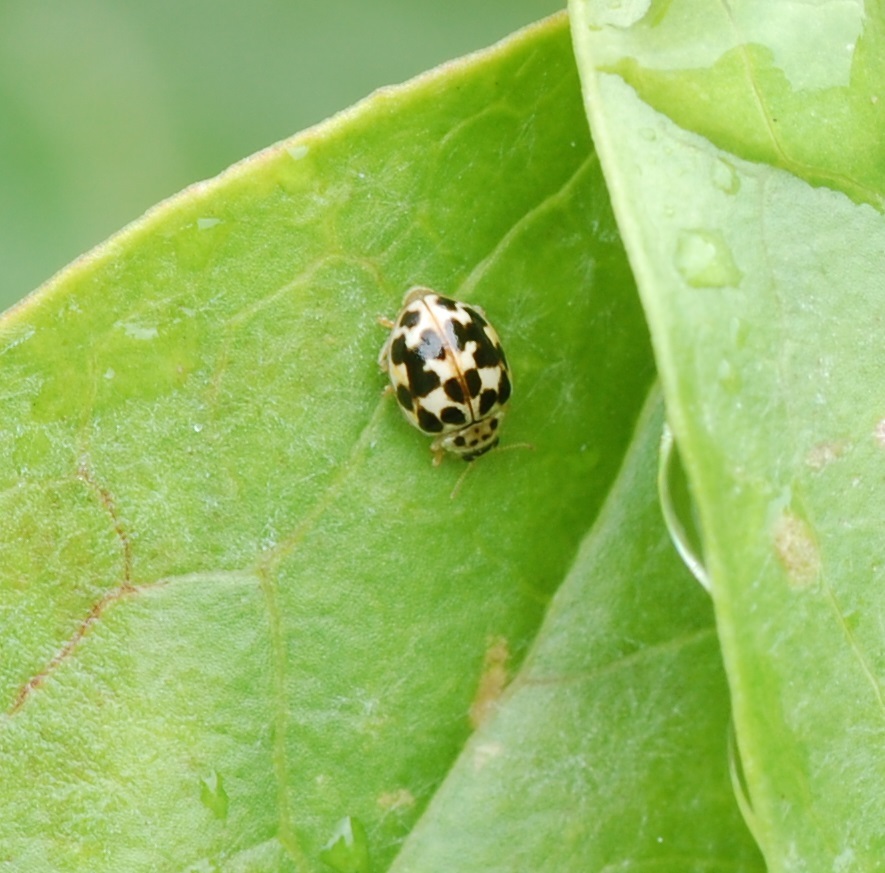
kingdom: Animalia
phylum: Arthropoda
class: Insecta
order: Coleoptera
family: Coccinellidae
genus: Psyllobora
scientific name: Psyllobora vigintimaculata
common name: Ladybird beetle
